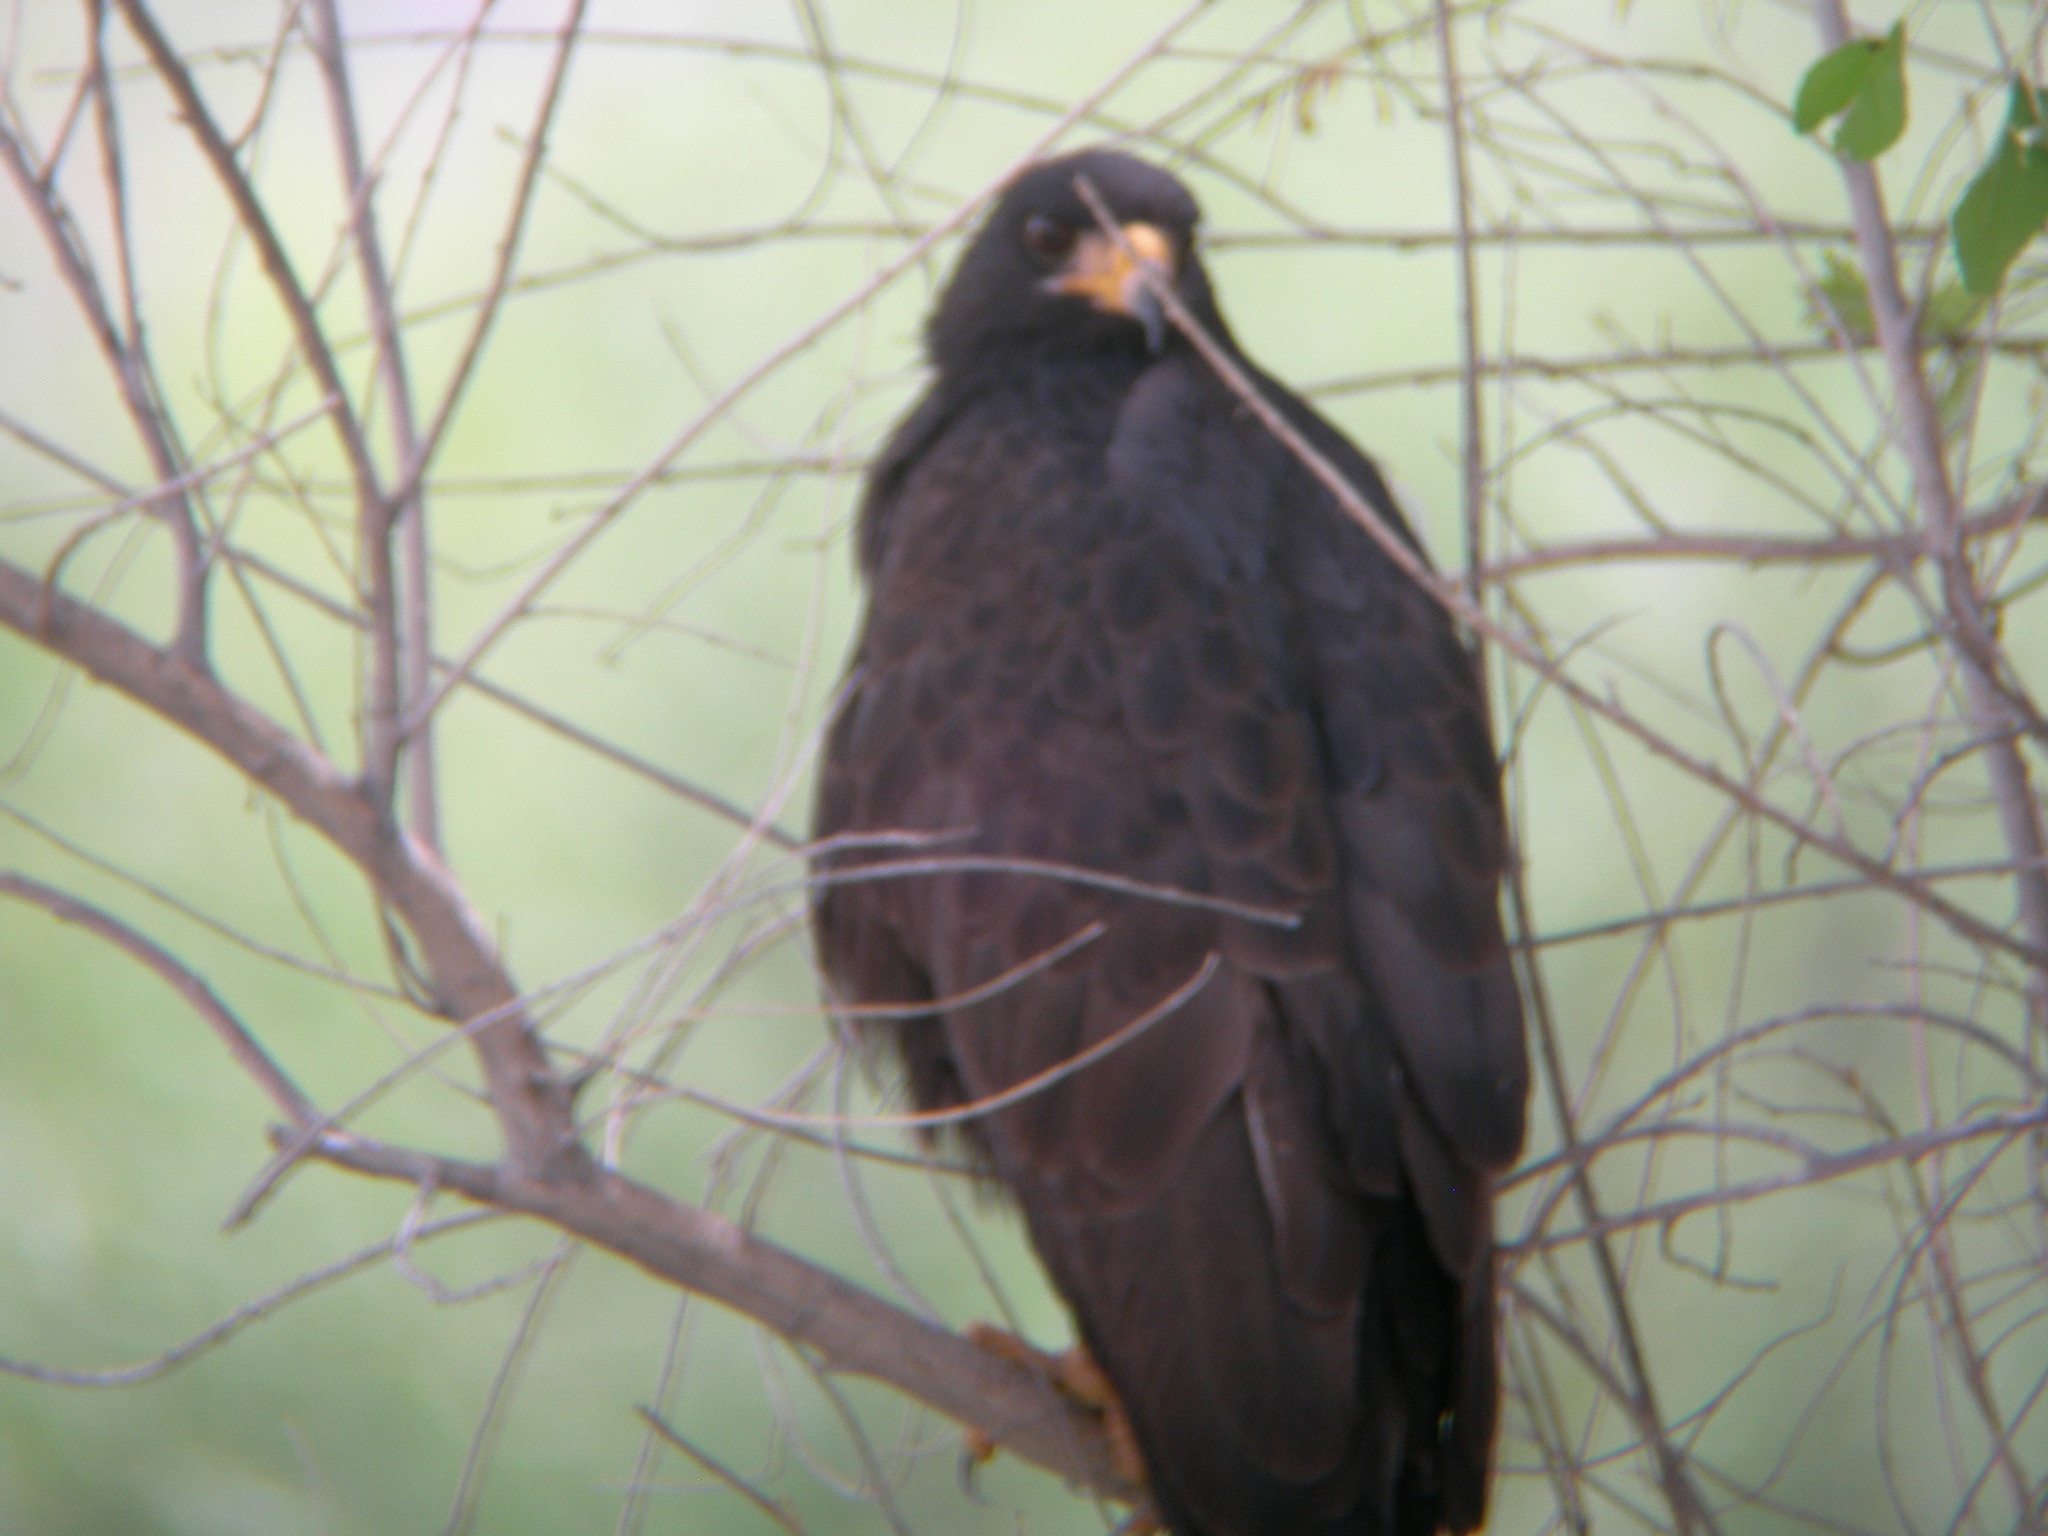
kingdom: Animalia
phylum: Chordata
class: Aves
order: Accipitriformes
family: Accipitridae
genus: Buteogallus
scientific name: Buteogallus anthracinus
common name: Common black hawk
